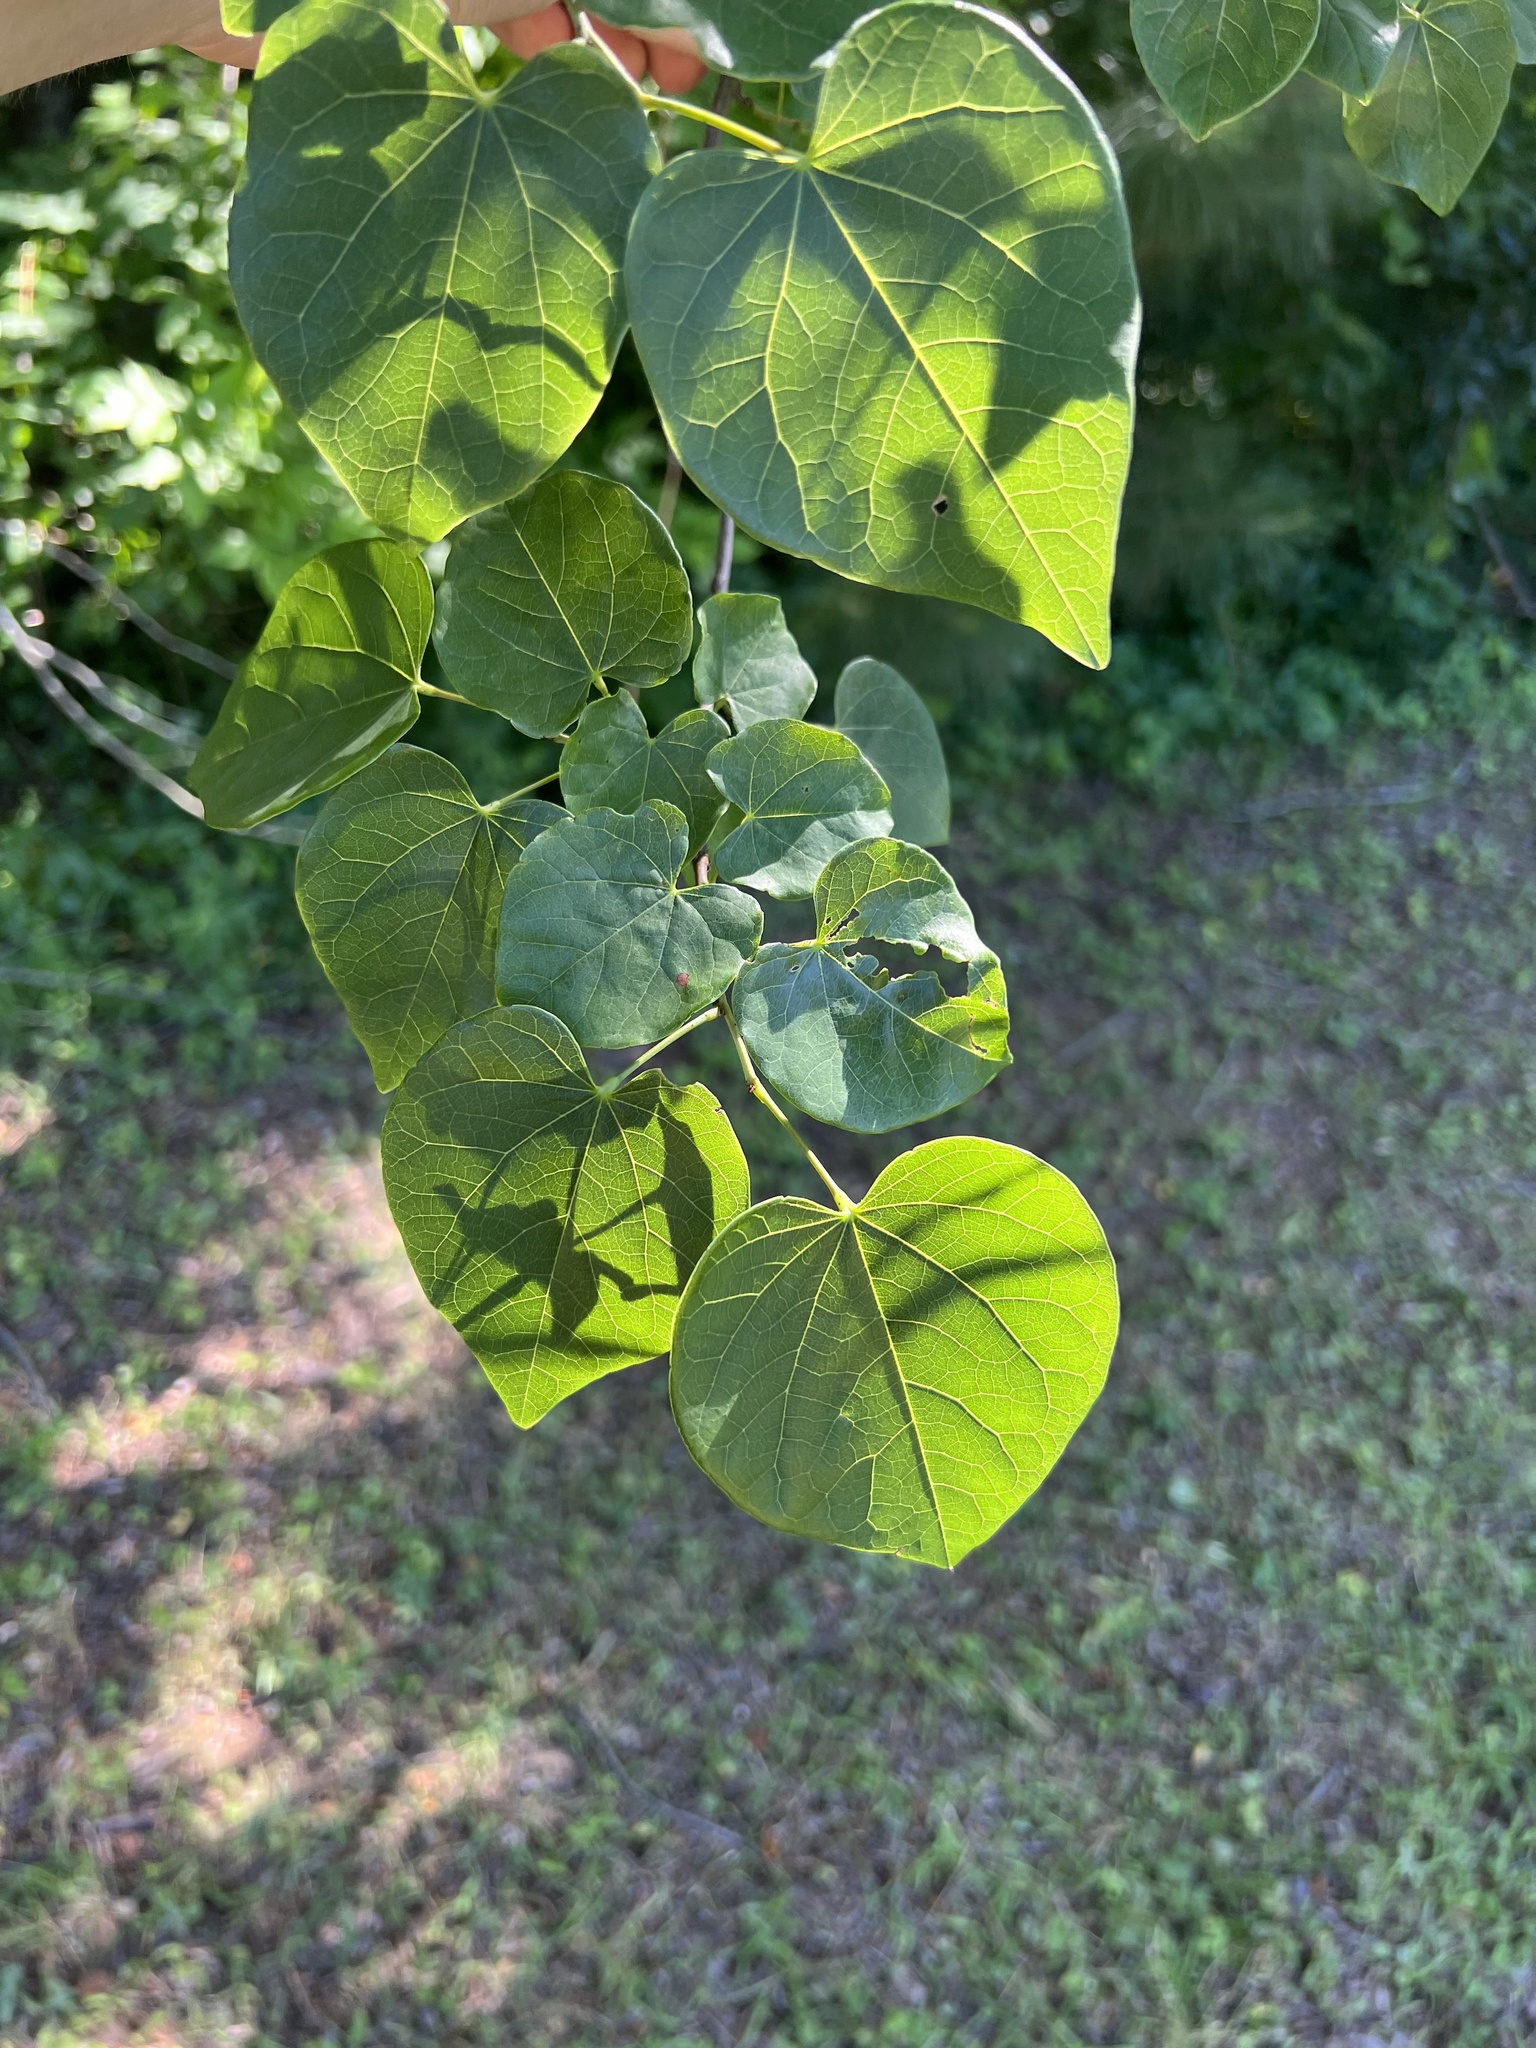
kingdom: Plantae
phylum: Tracheophyta
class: Magnoliopsida
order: Fabales
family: Fabaceae
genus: Cercis
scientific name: Cercis canadensis
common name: Eastern redbud
